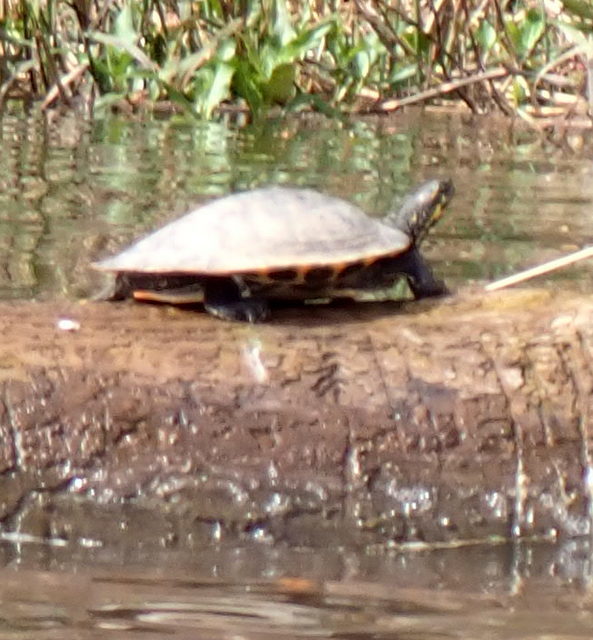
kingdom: Animalia
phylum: Chordata
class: Testudines
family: Emydidae
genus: Pseudemys
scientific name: Pseudemys concinna
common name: Eastern river cooter
